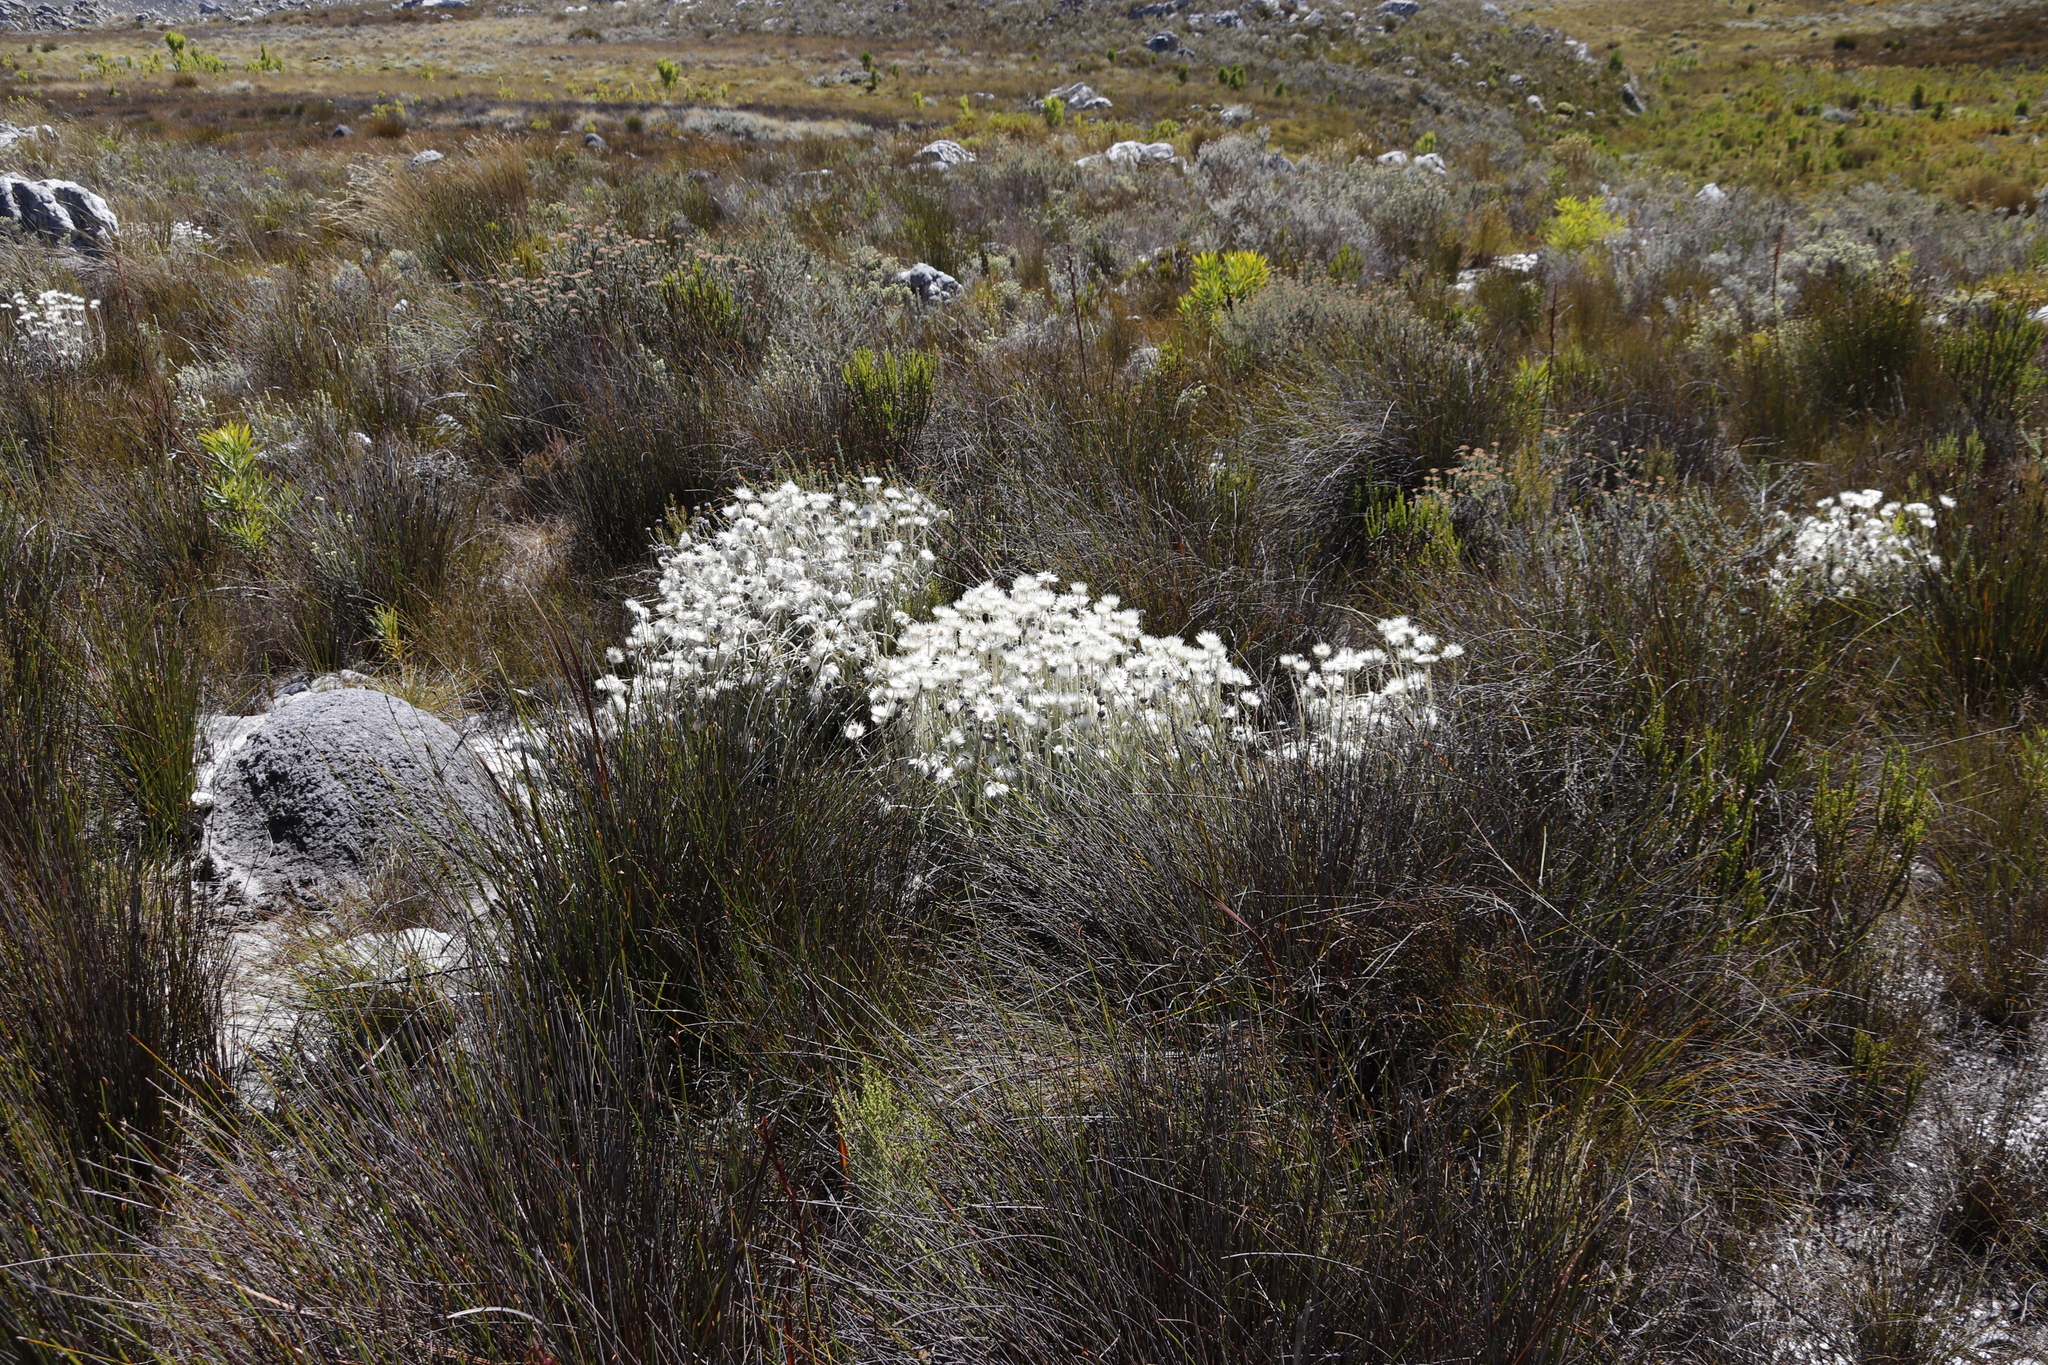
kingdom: Plantae
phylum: Tracheophyta
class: Magnoliopsida
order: Asterales
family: Asteraceae
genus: Syncarpha
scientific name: Syncarpha vestita
